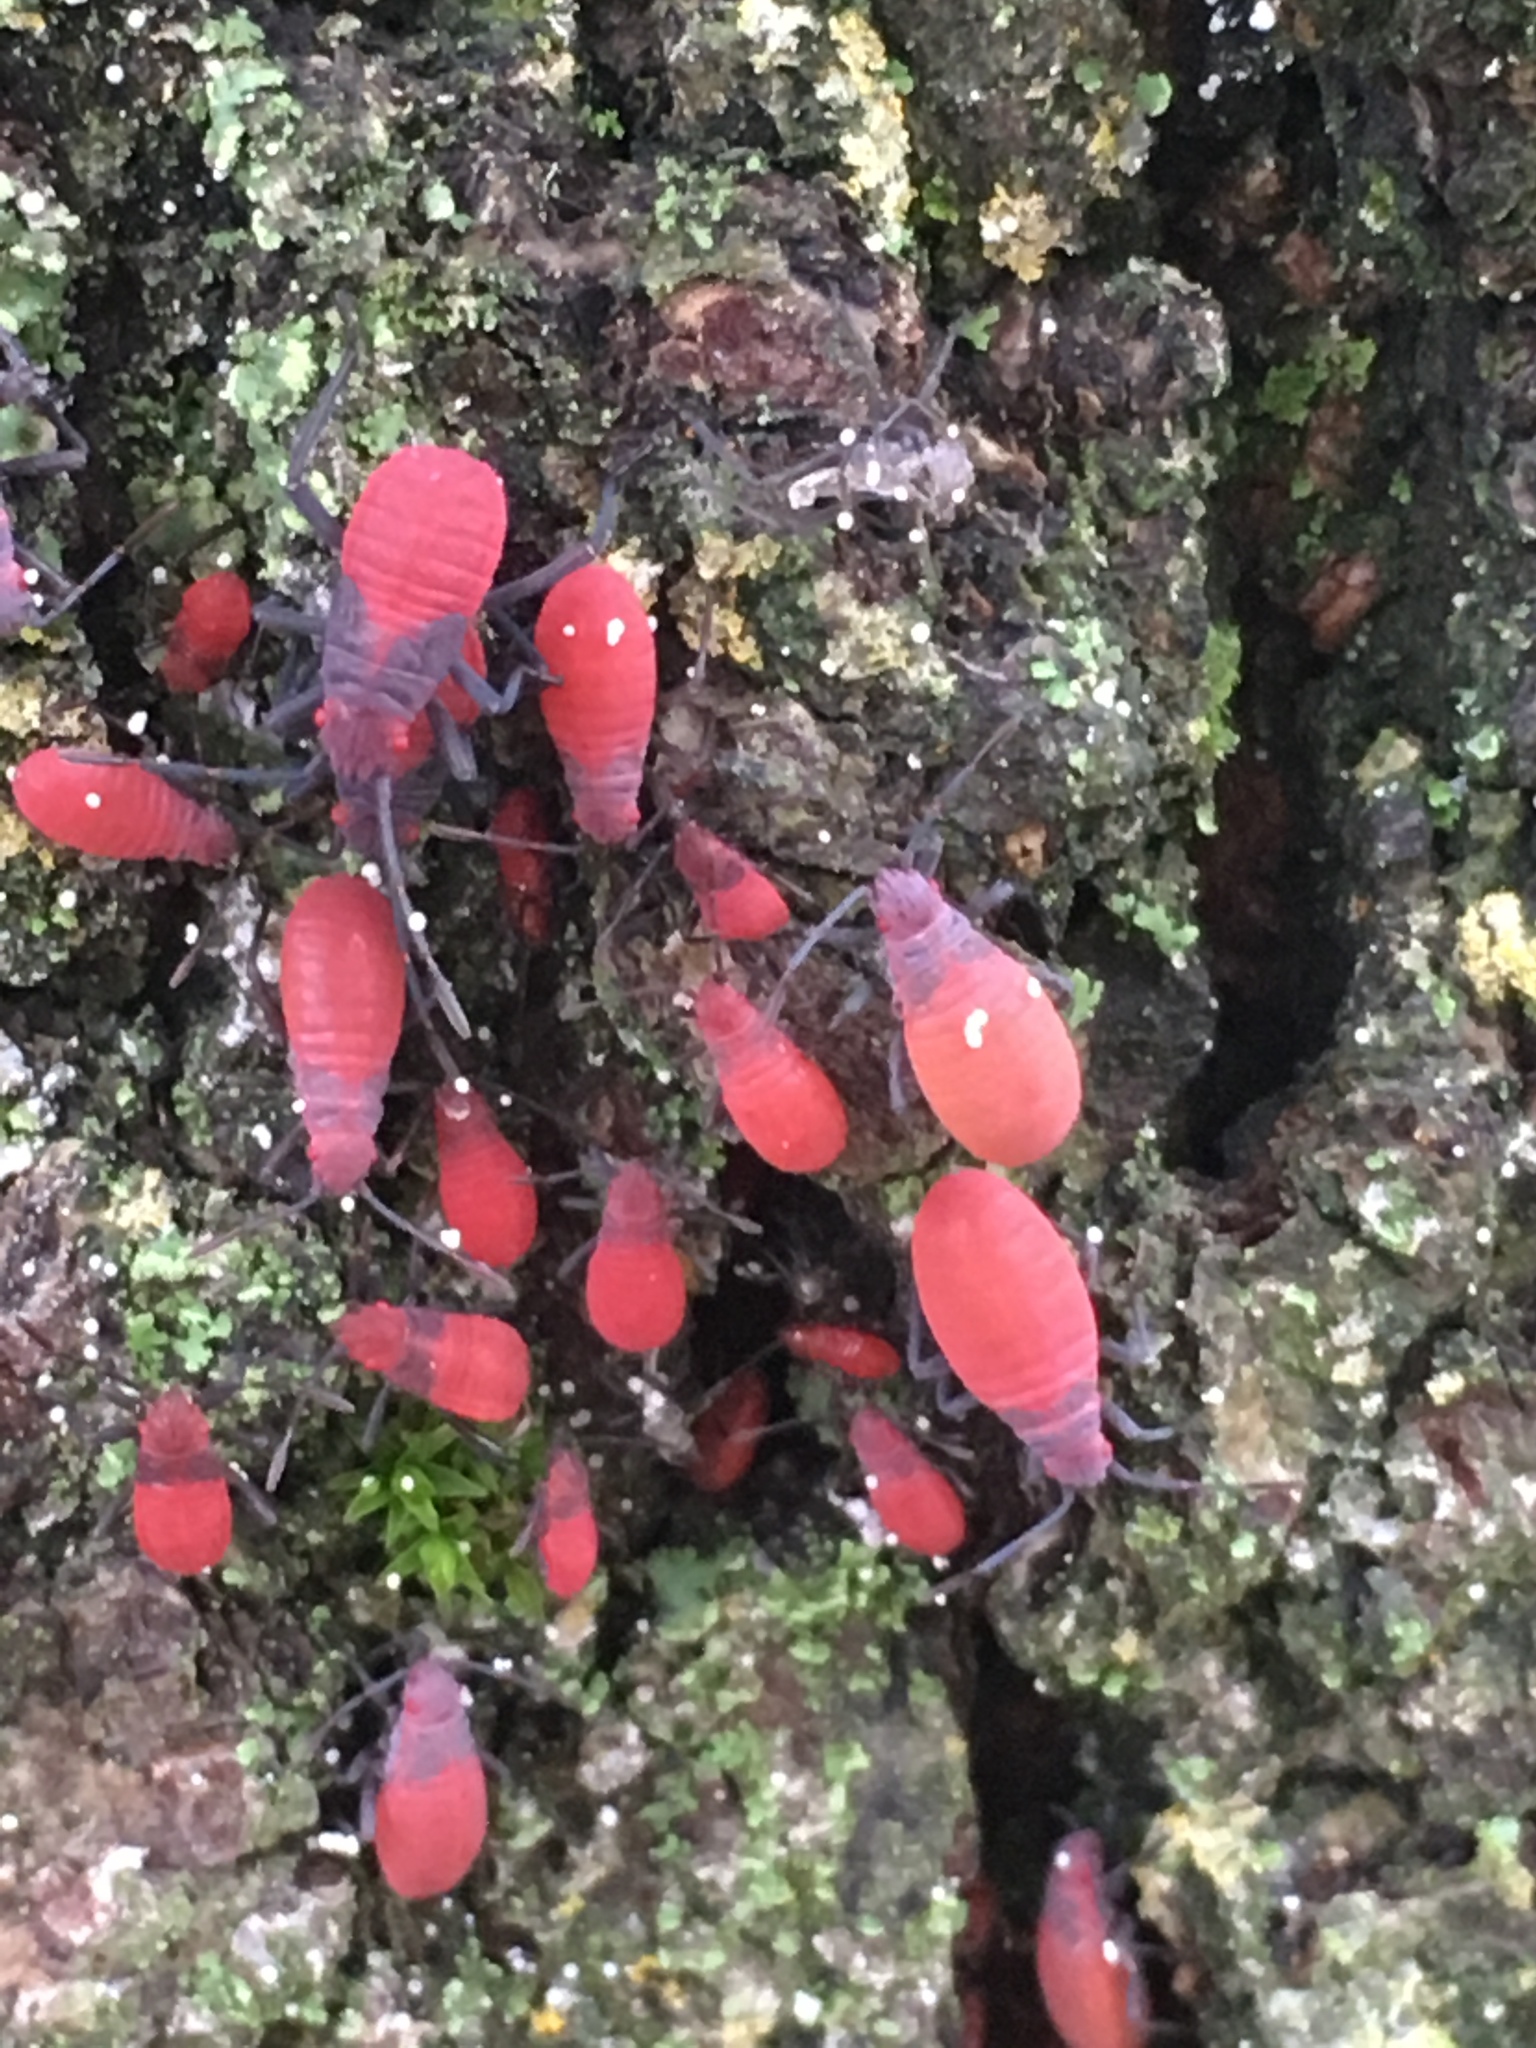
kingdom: Animalia
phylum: Arthropoda
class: Insecta
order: Hemiptera
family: Rhopalidae
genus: Jadera
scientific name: Jadera haematoloma
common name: Red-shouldered bug
